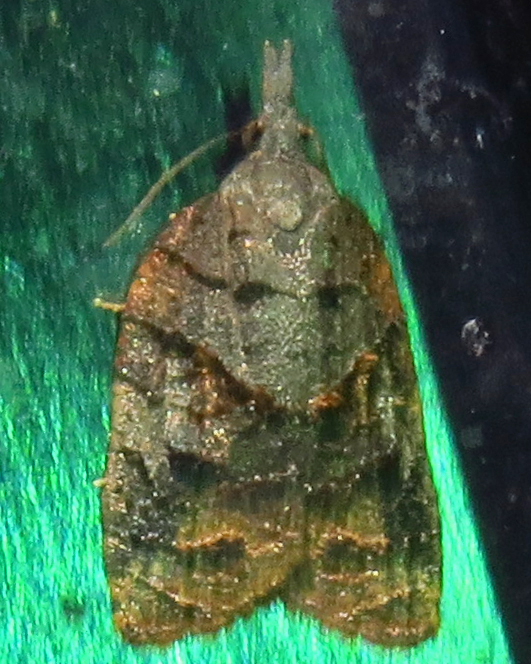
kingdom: Animalia
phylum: Arthropoda
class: Insecta
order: Lepidoptera
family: Tortricidae
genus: Platynota
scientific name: Platynota idaeusalis
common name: Tufted apple bud moth
